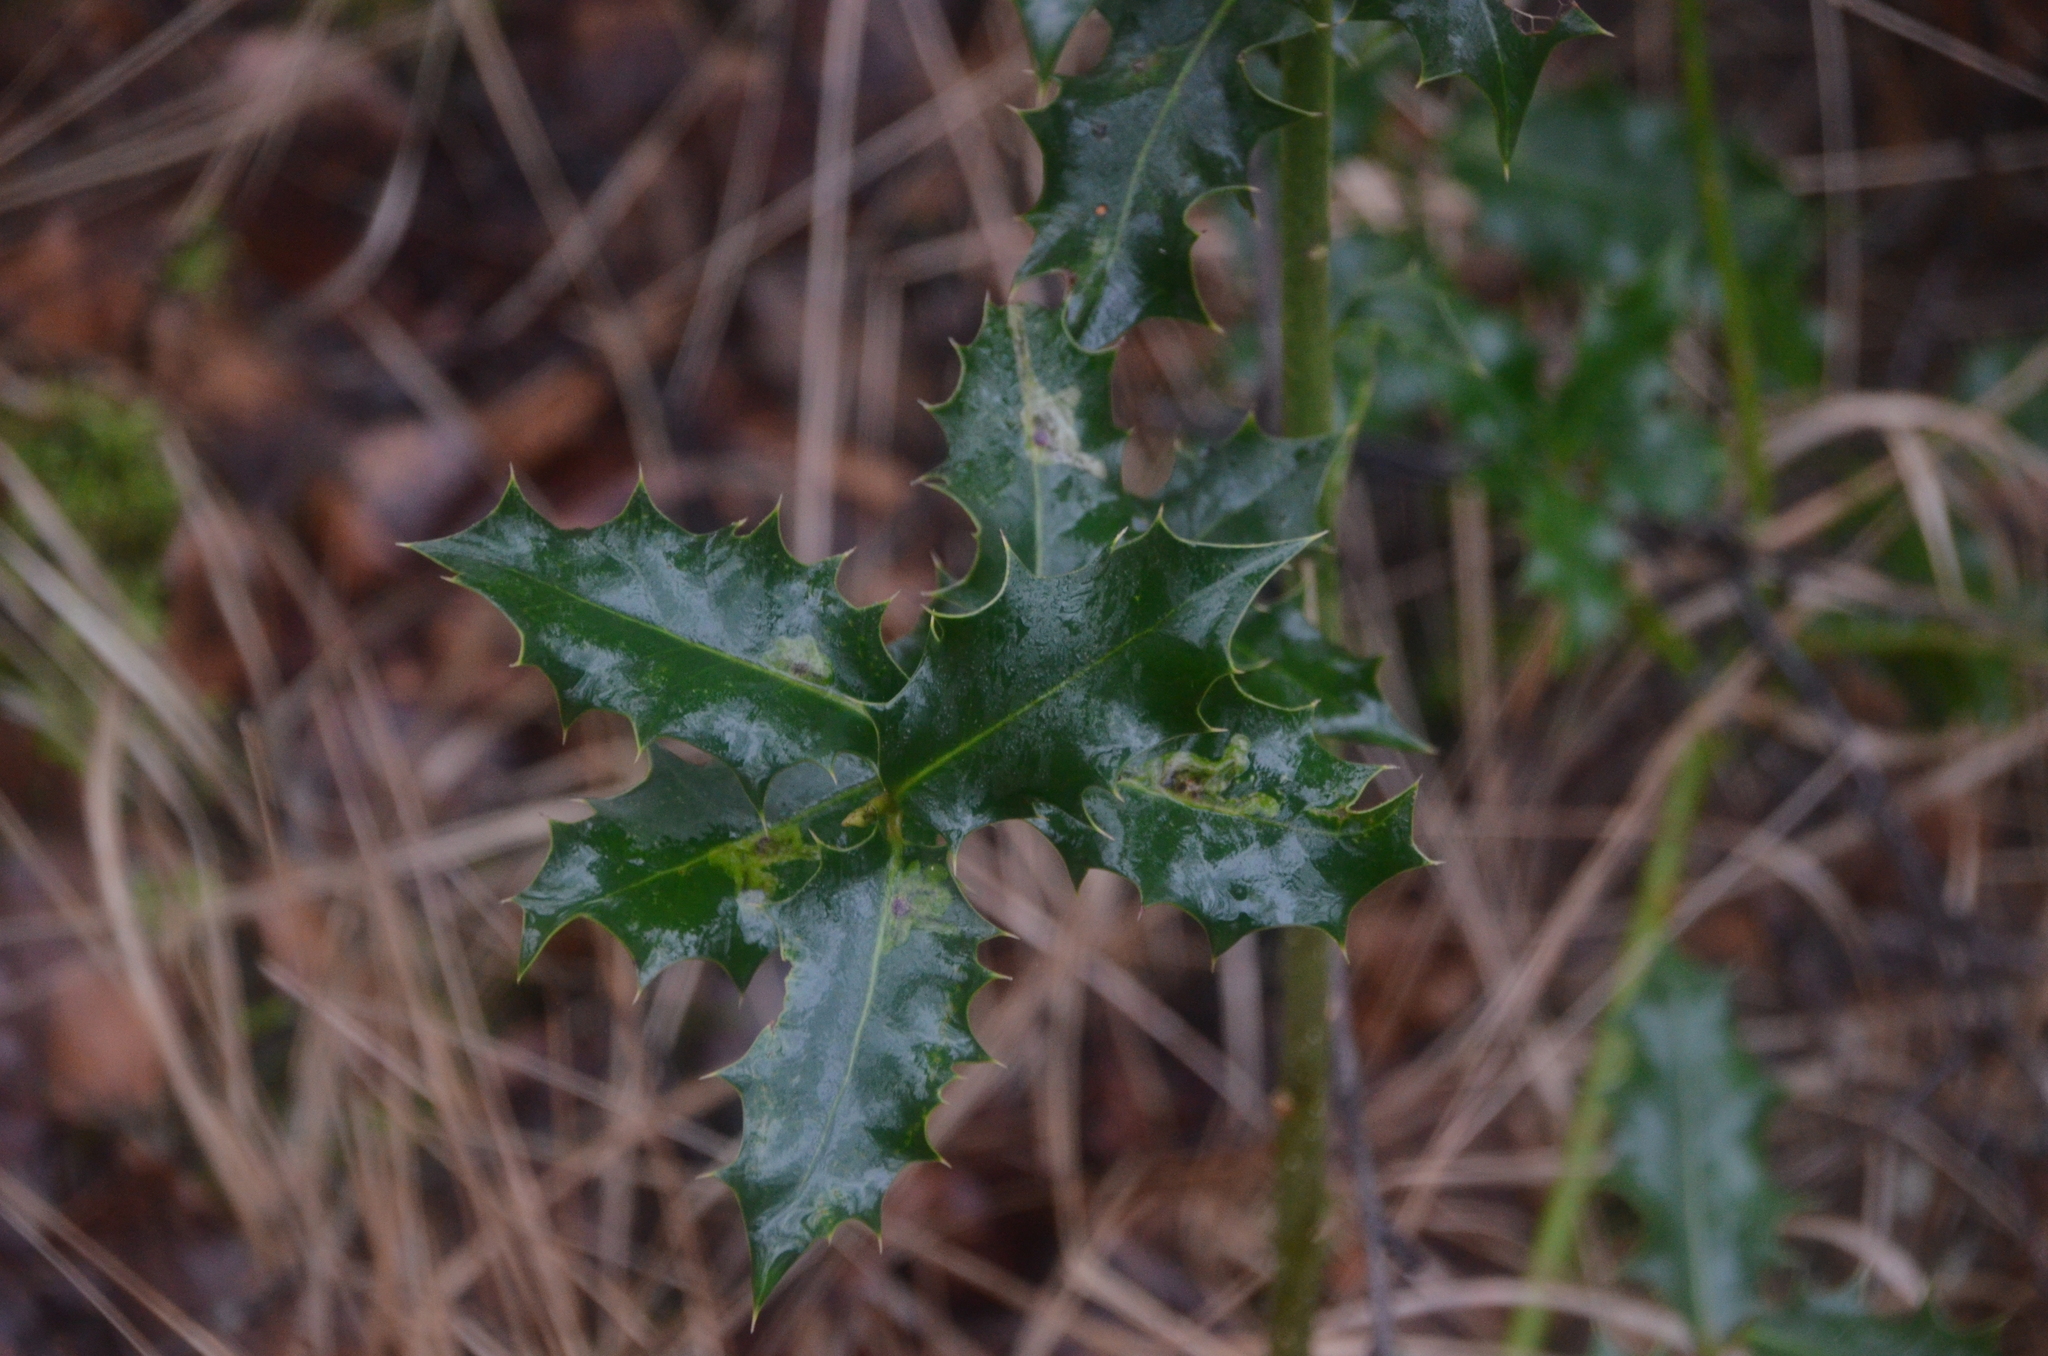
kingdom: Plantae
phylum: Tracheophyta
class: Magnoliopsida
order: Aquifoliales
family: Aquifoliaceae
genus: Ilex
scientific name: Ilex aquifolium
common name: English holly
